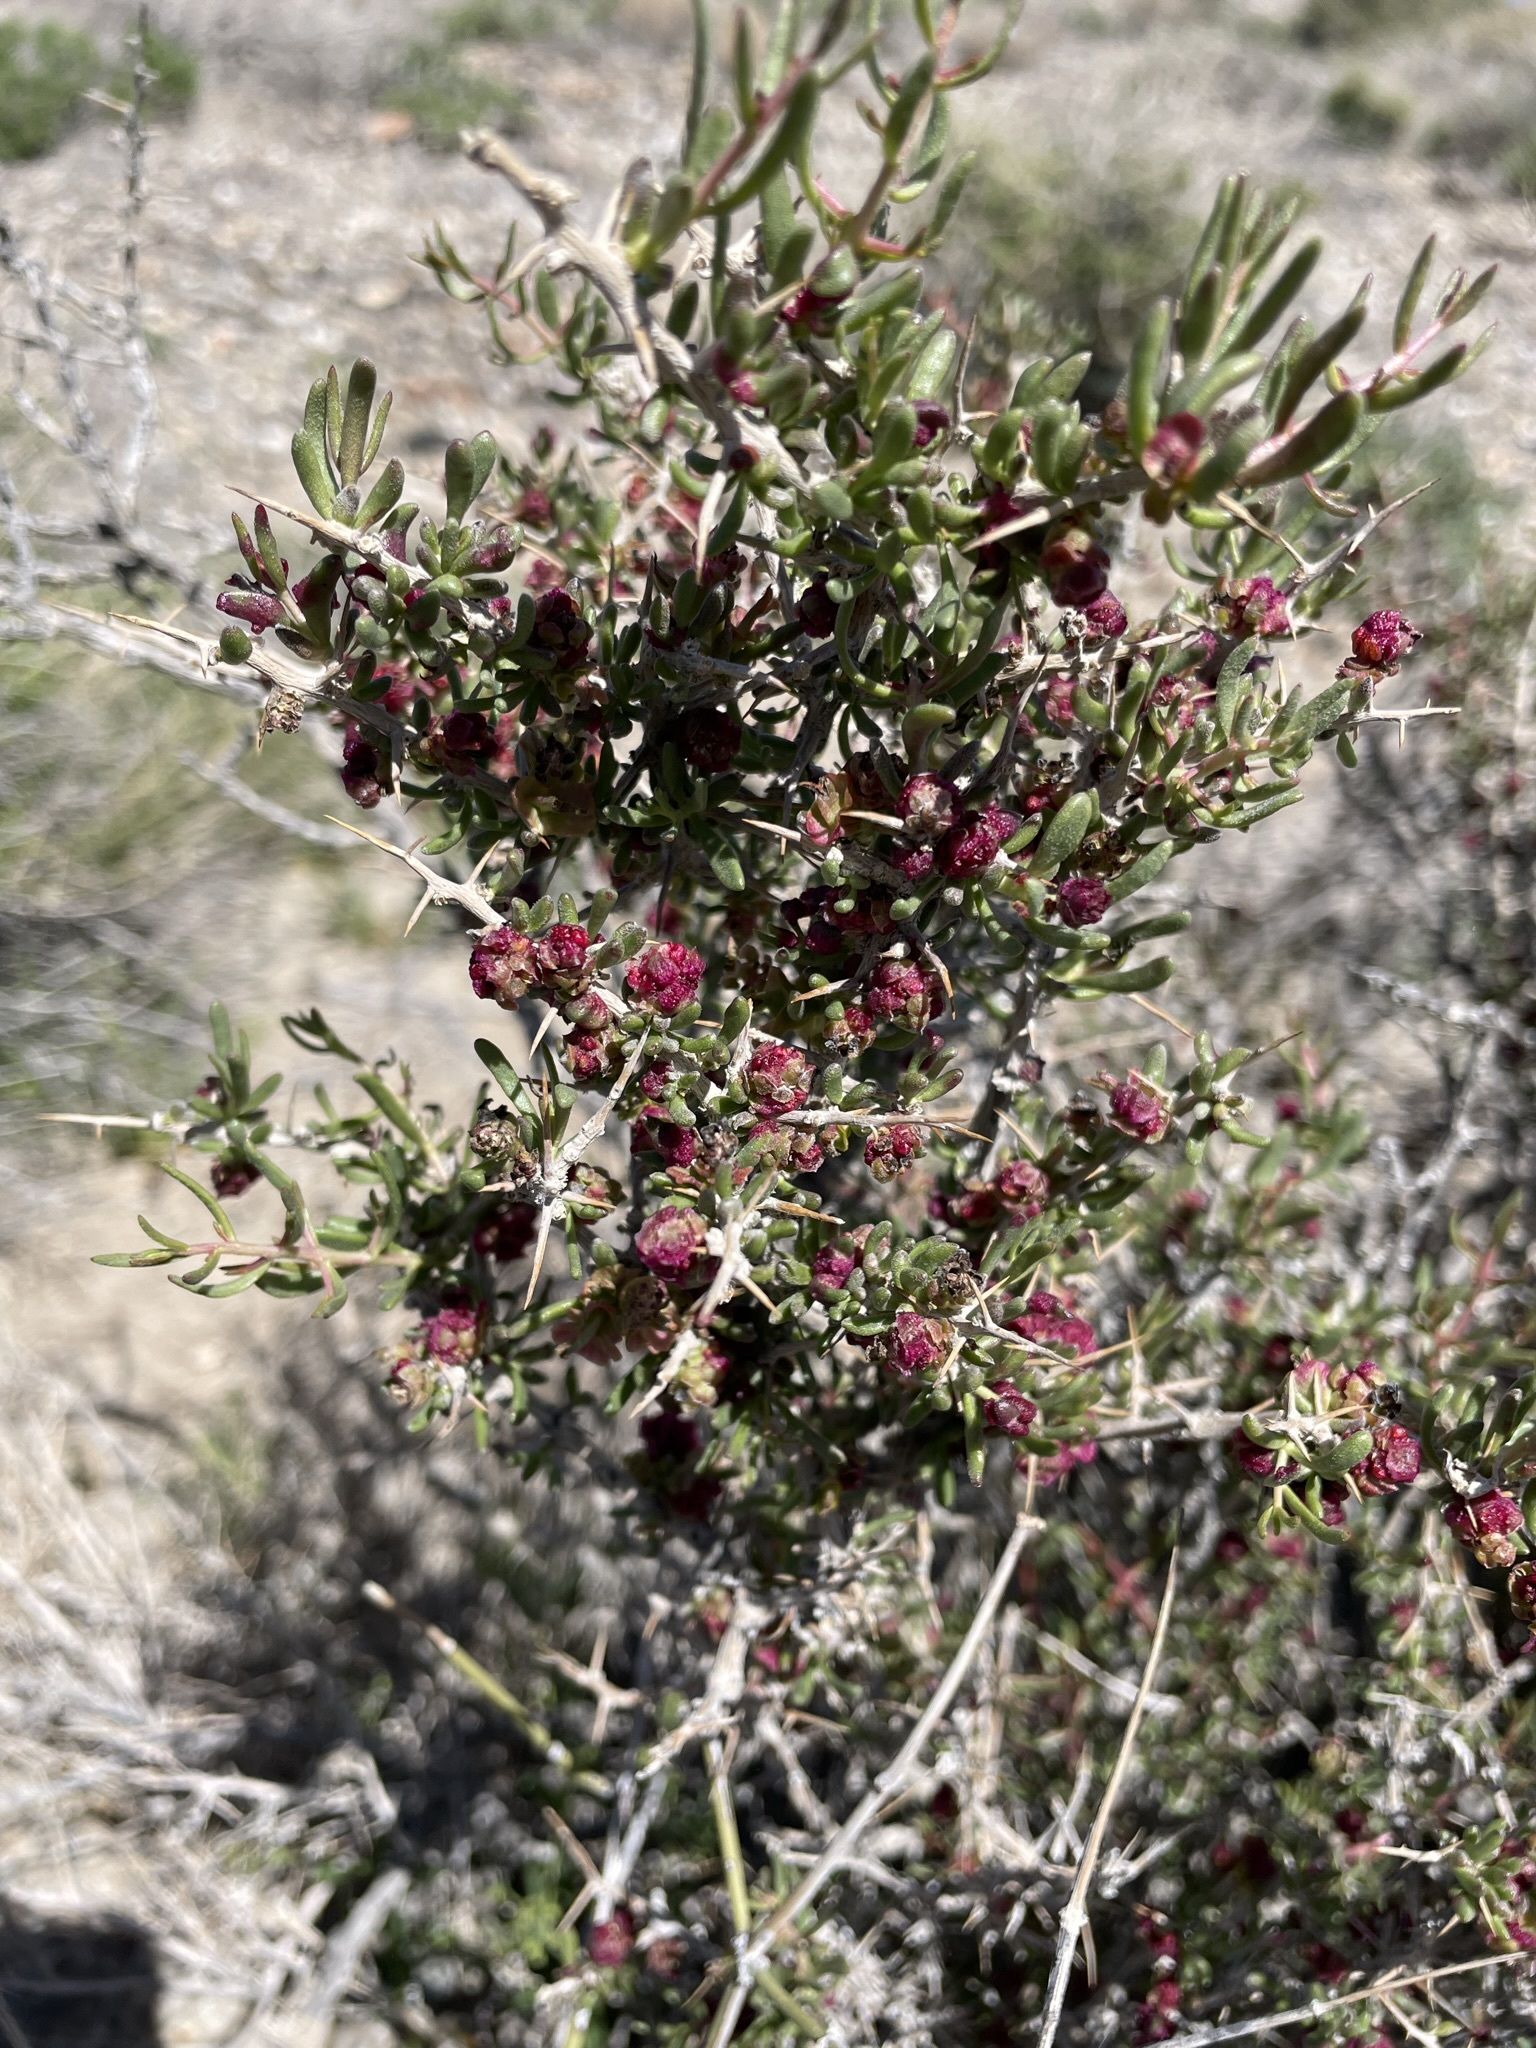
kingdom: Plantae
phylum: Tracheophyta
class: Magnoliopsida
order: Caryophyllales
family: Sarcobataceae
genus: Sarcobatus
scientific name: Sarcobatus baileyi
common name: Bailey greasewood
